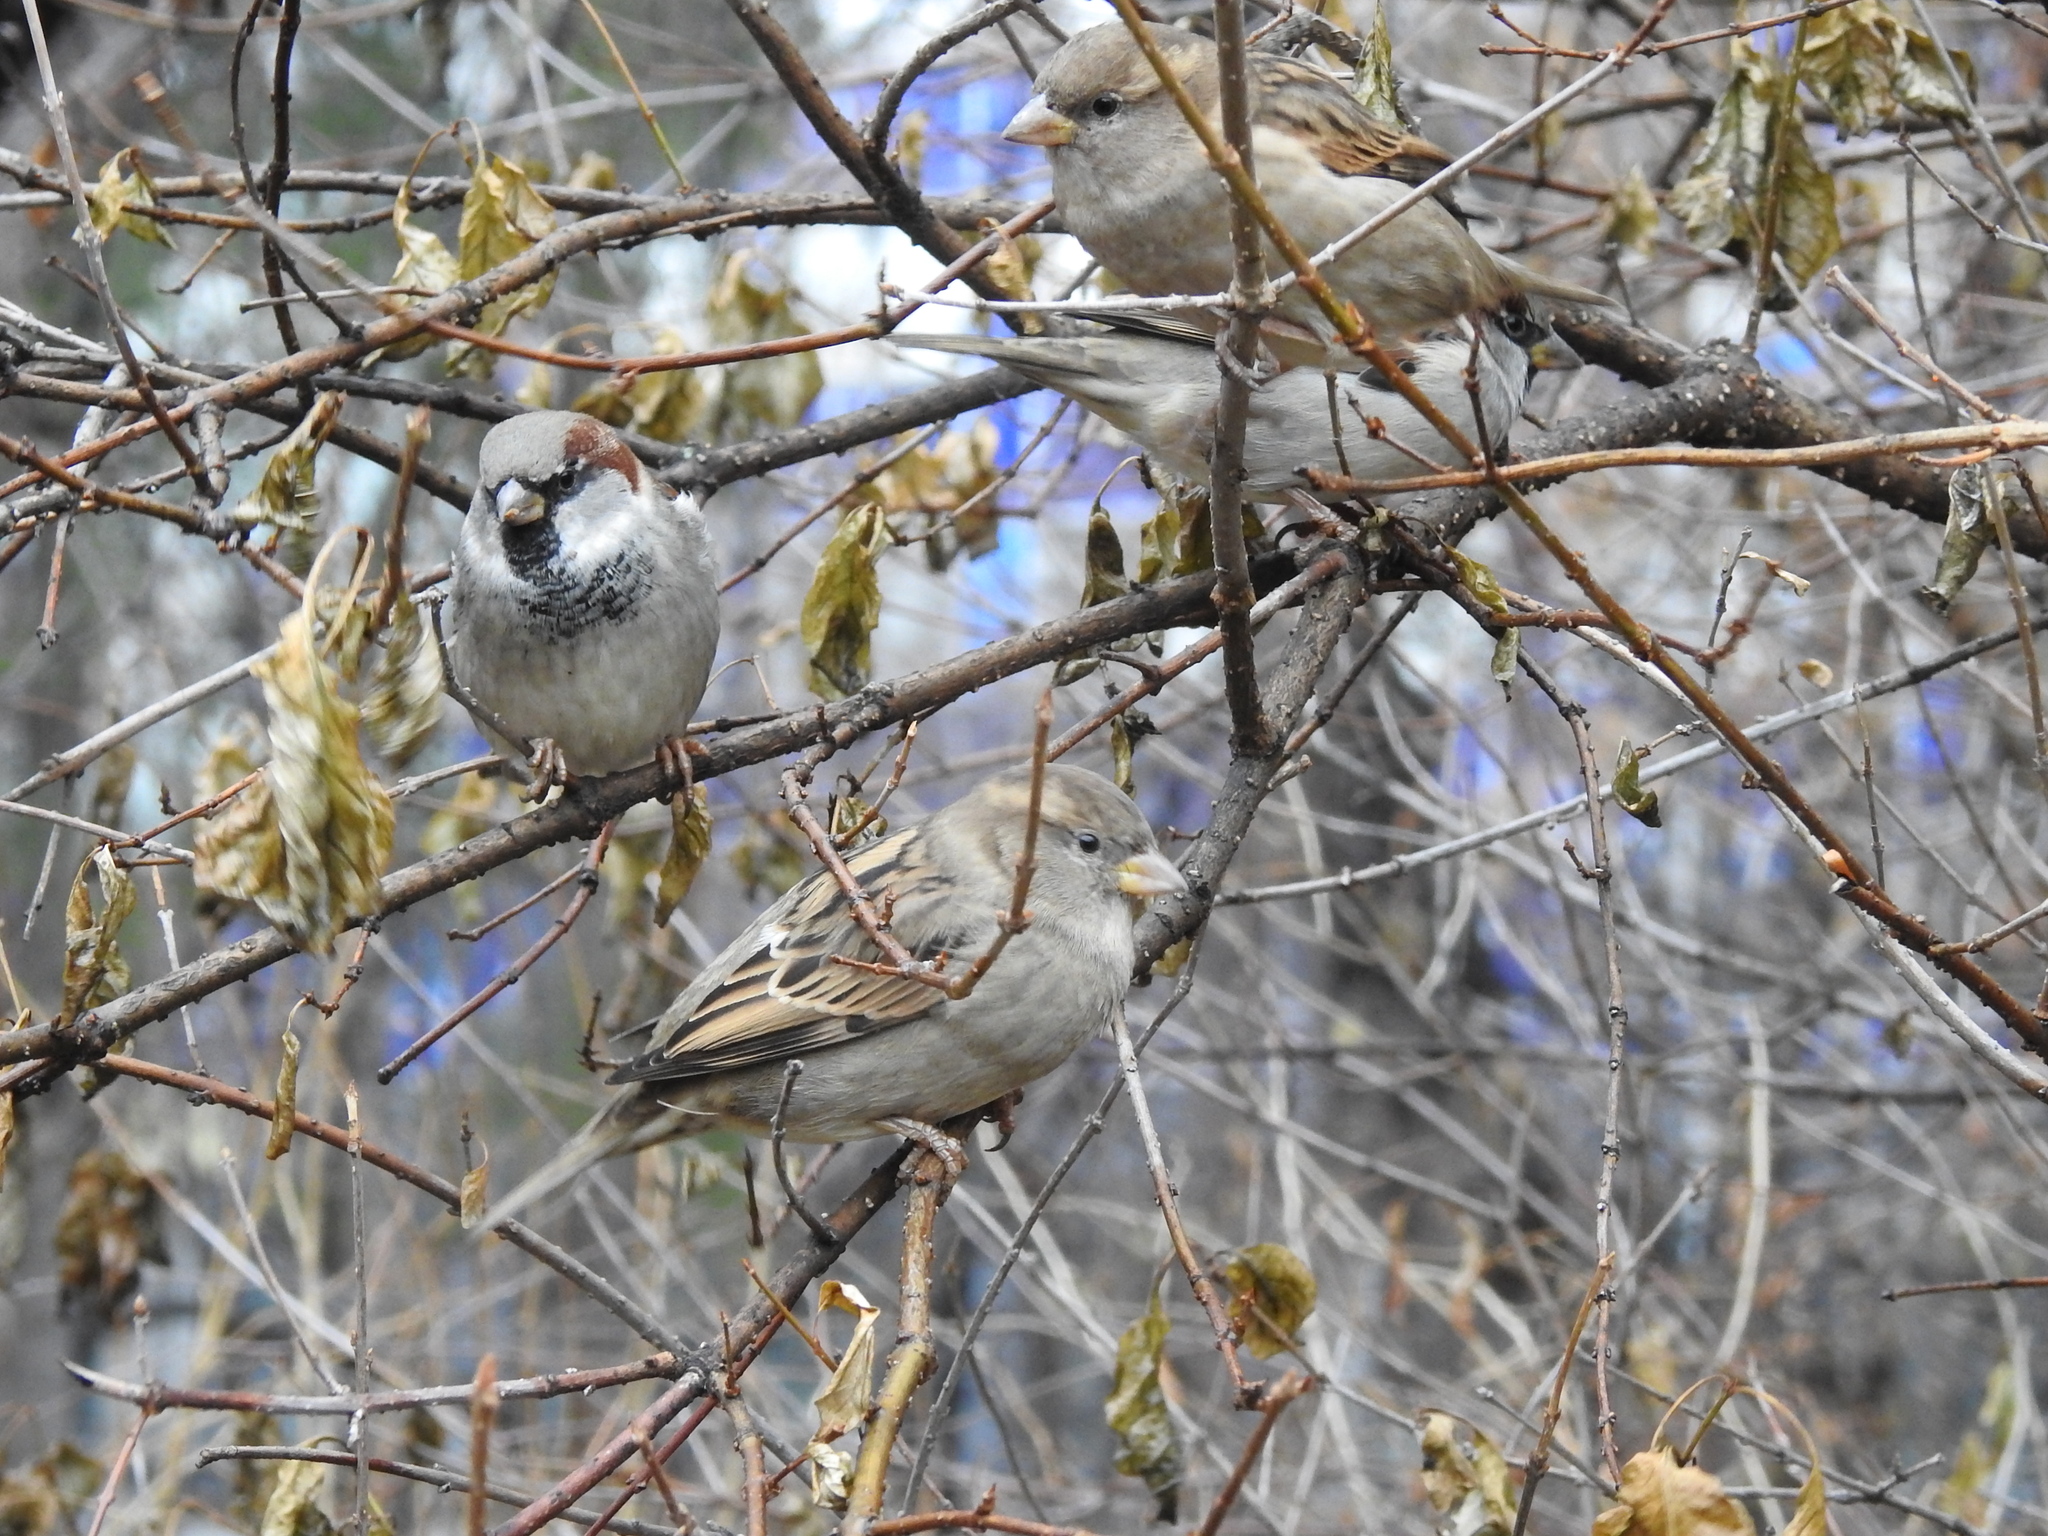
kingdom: Animalia
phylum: Chordata
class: Aves
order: Passeriformes
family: Passeridae
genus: Passer
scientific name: Passer domesticus
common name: House sparrow
